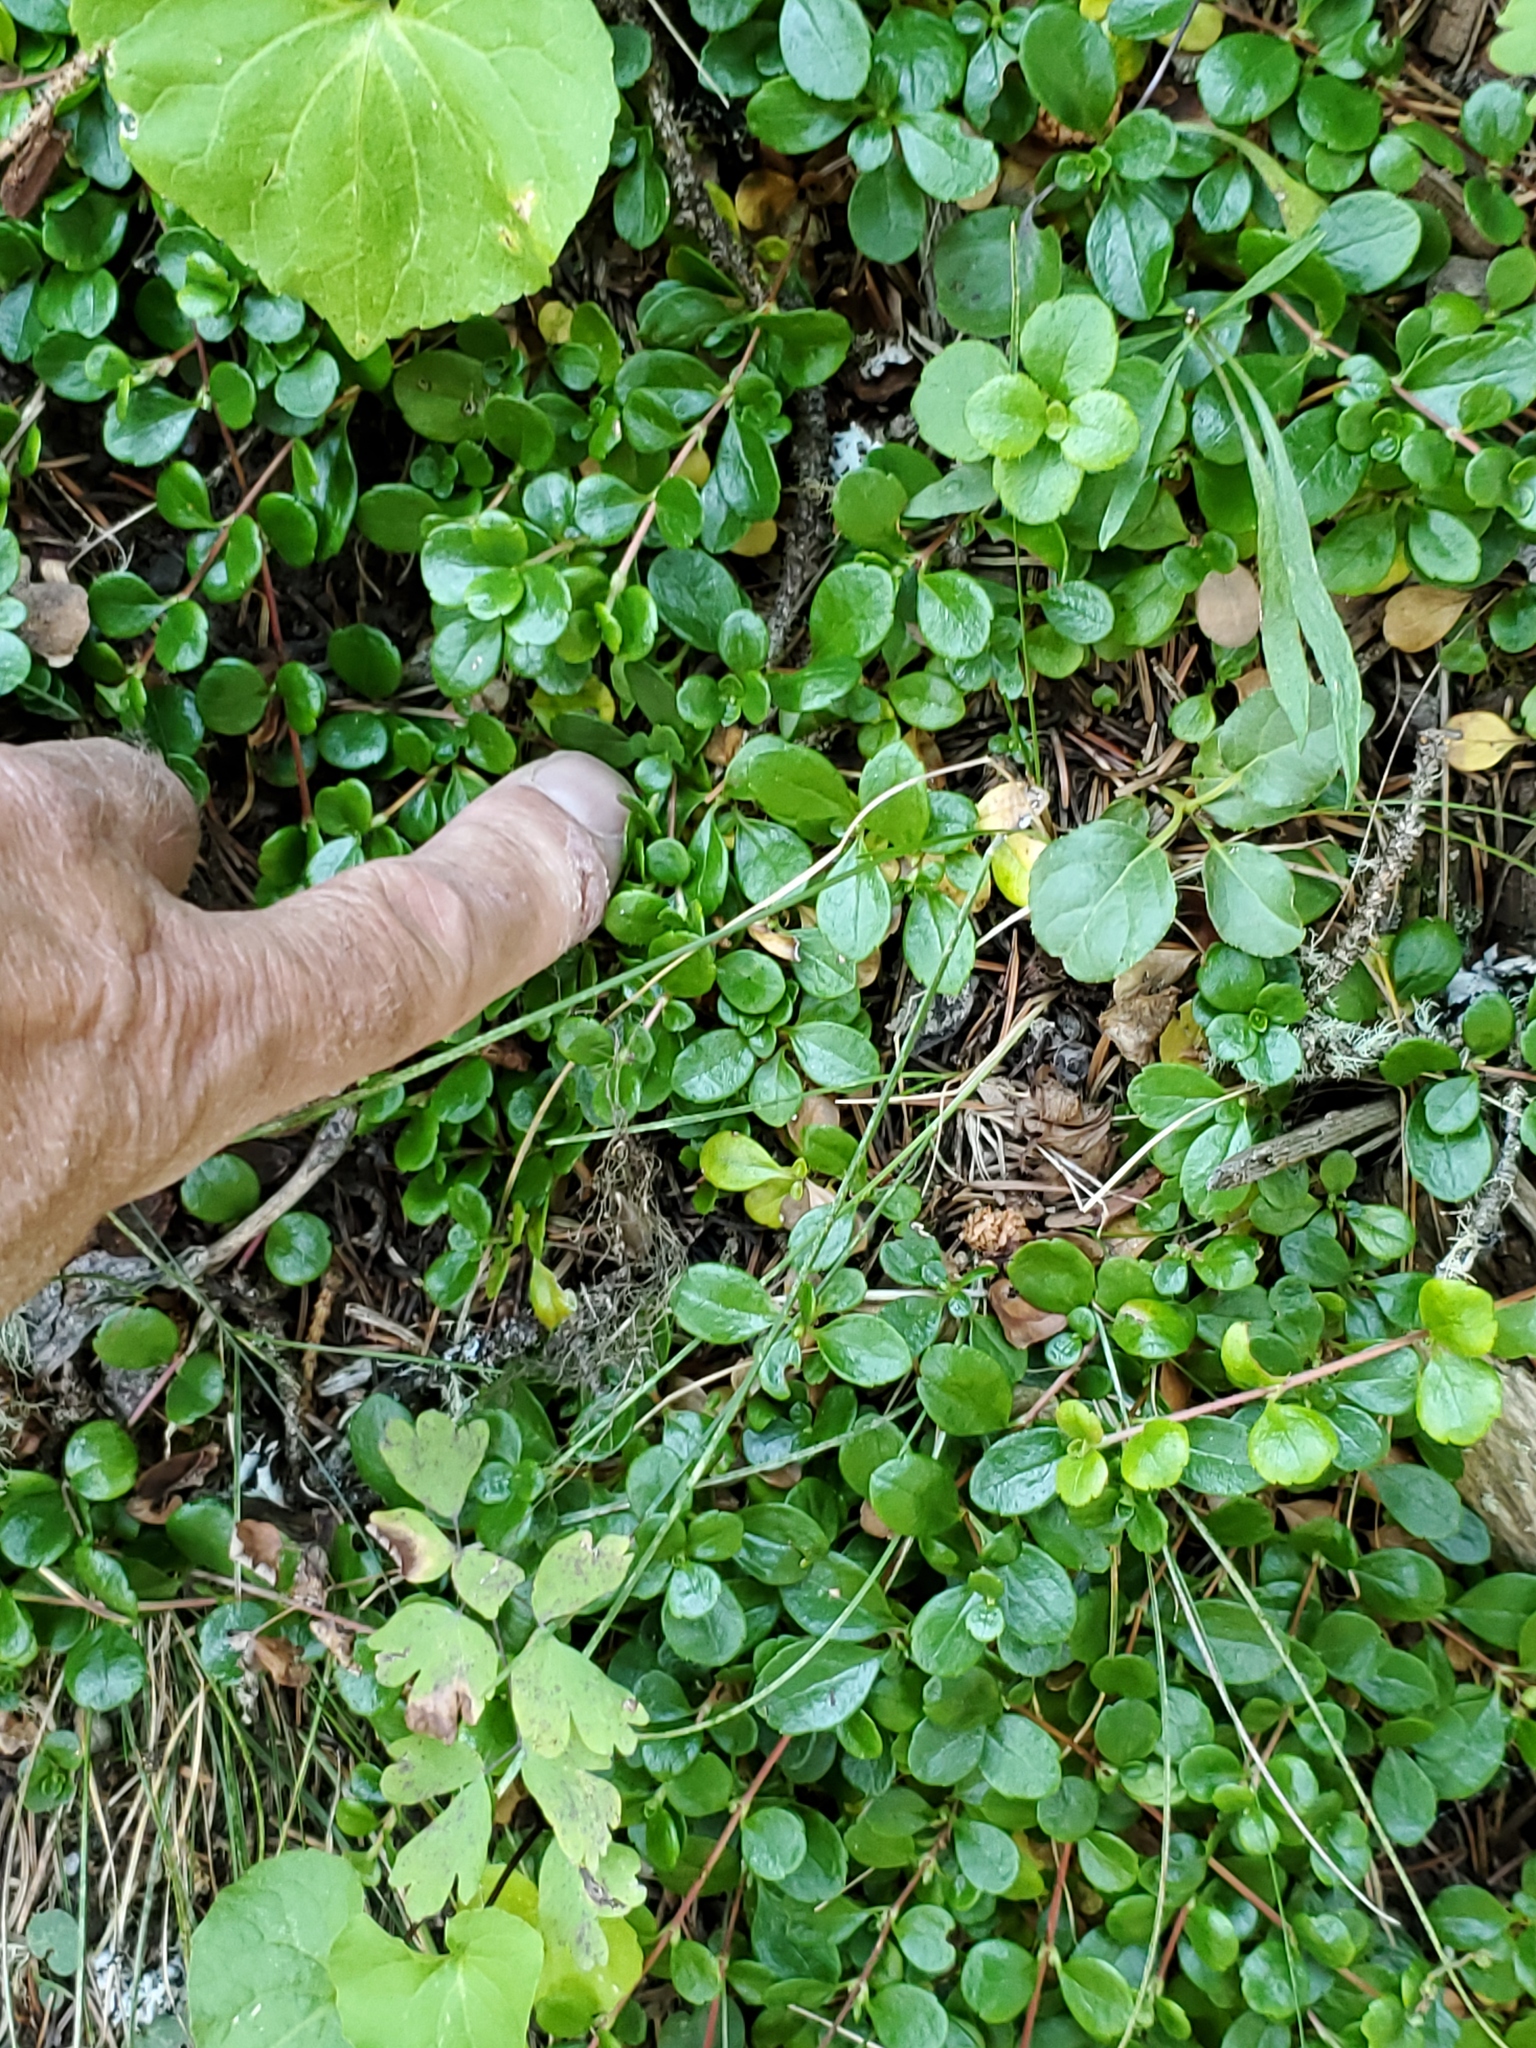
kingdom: Plantae
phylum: Tracheophyta
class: Magnoliopsida
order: Dipsacales
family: Caprifoliaceae
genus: Linnaea
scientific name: Linnaea borealis
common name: Twinflower
